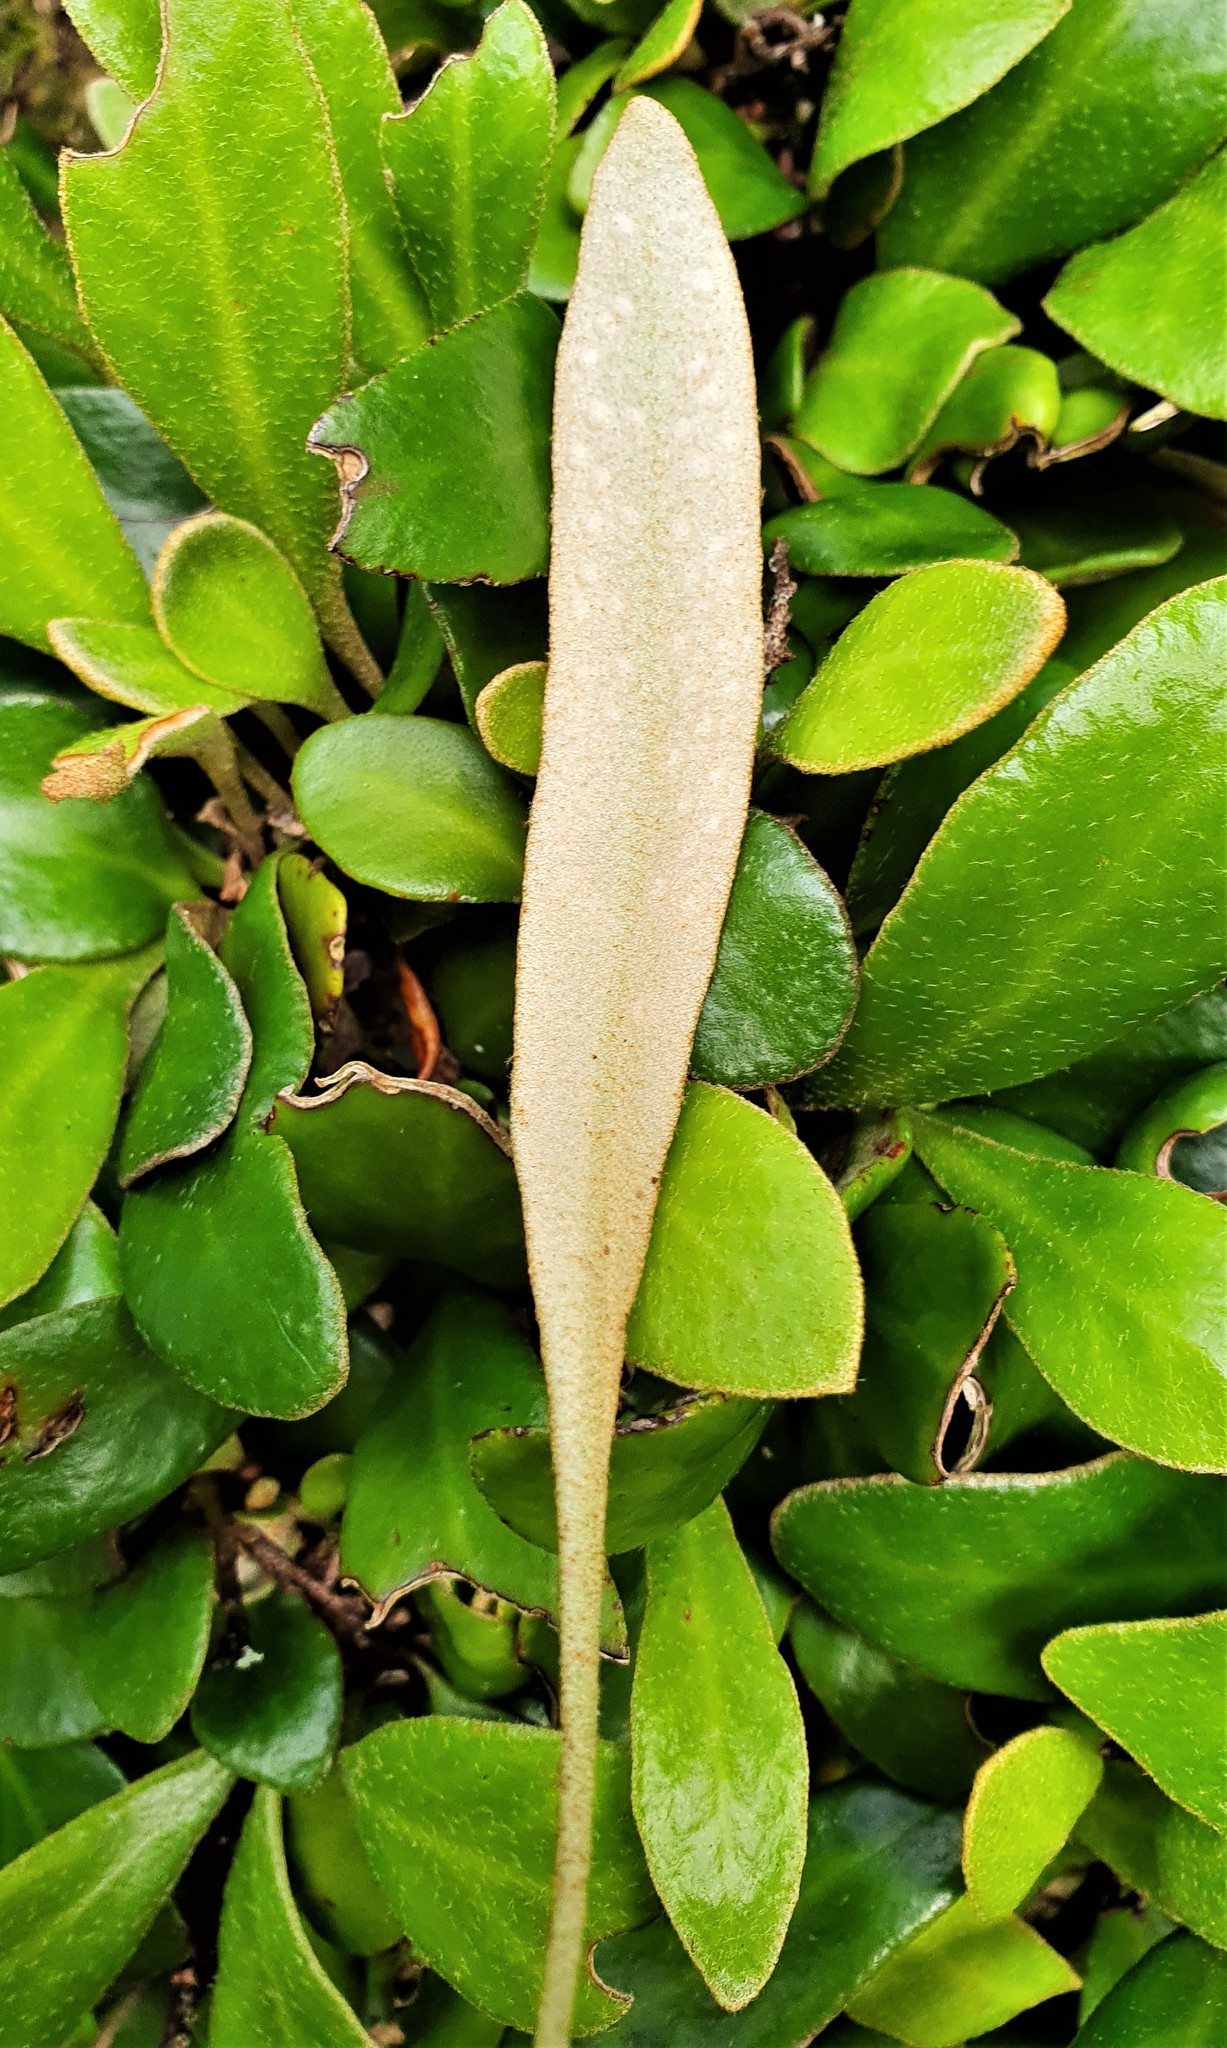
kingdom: Plantae
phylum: Tracheophyta
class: Polypodiopsida
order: Polypodiales
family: Polypodiaceae
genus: Pyrrosia
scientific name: Pyrrosia eleagnifolia
